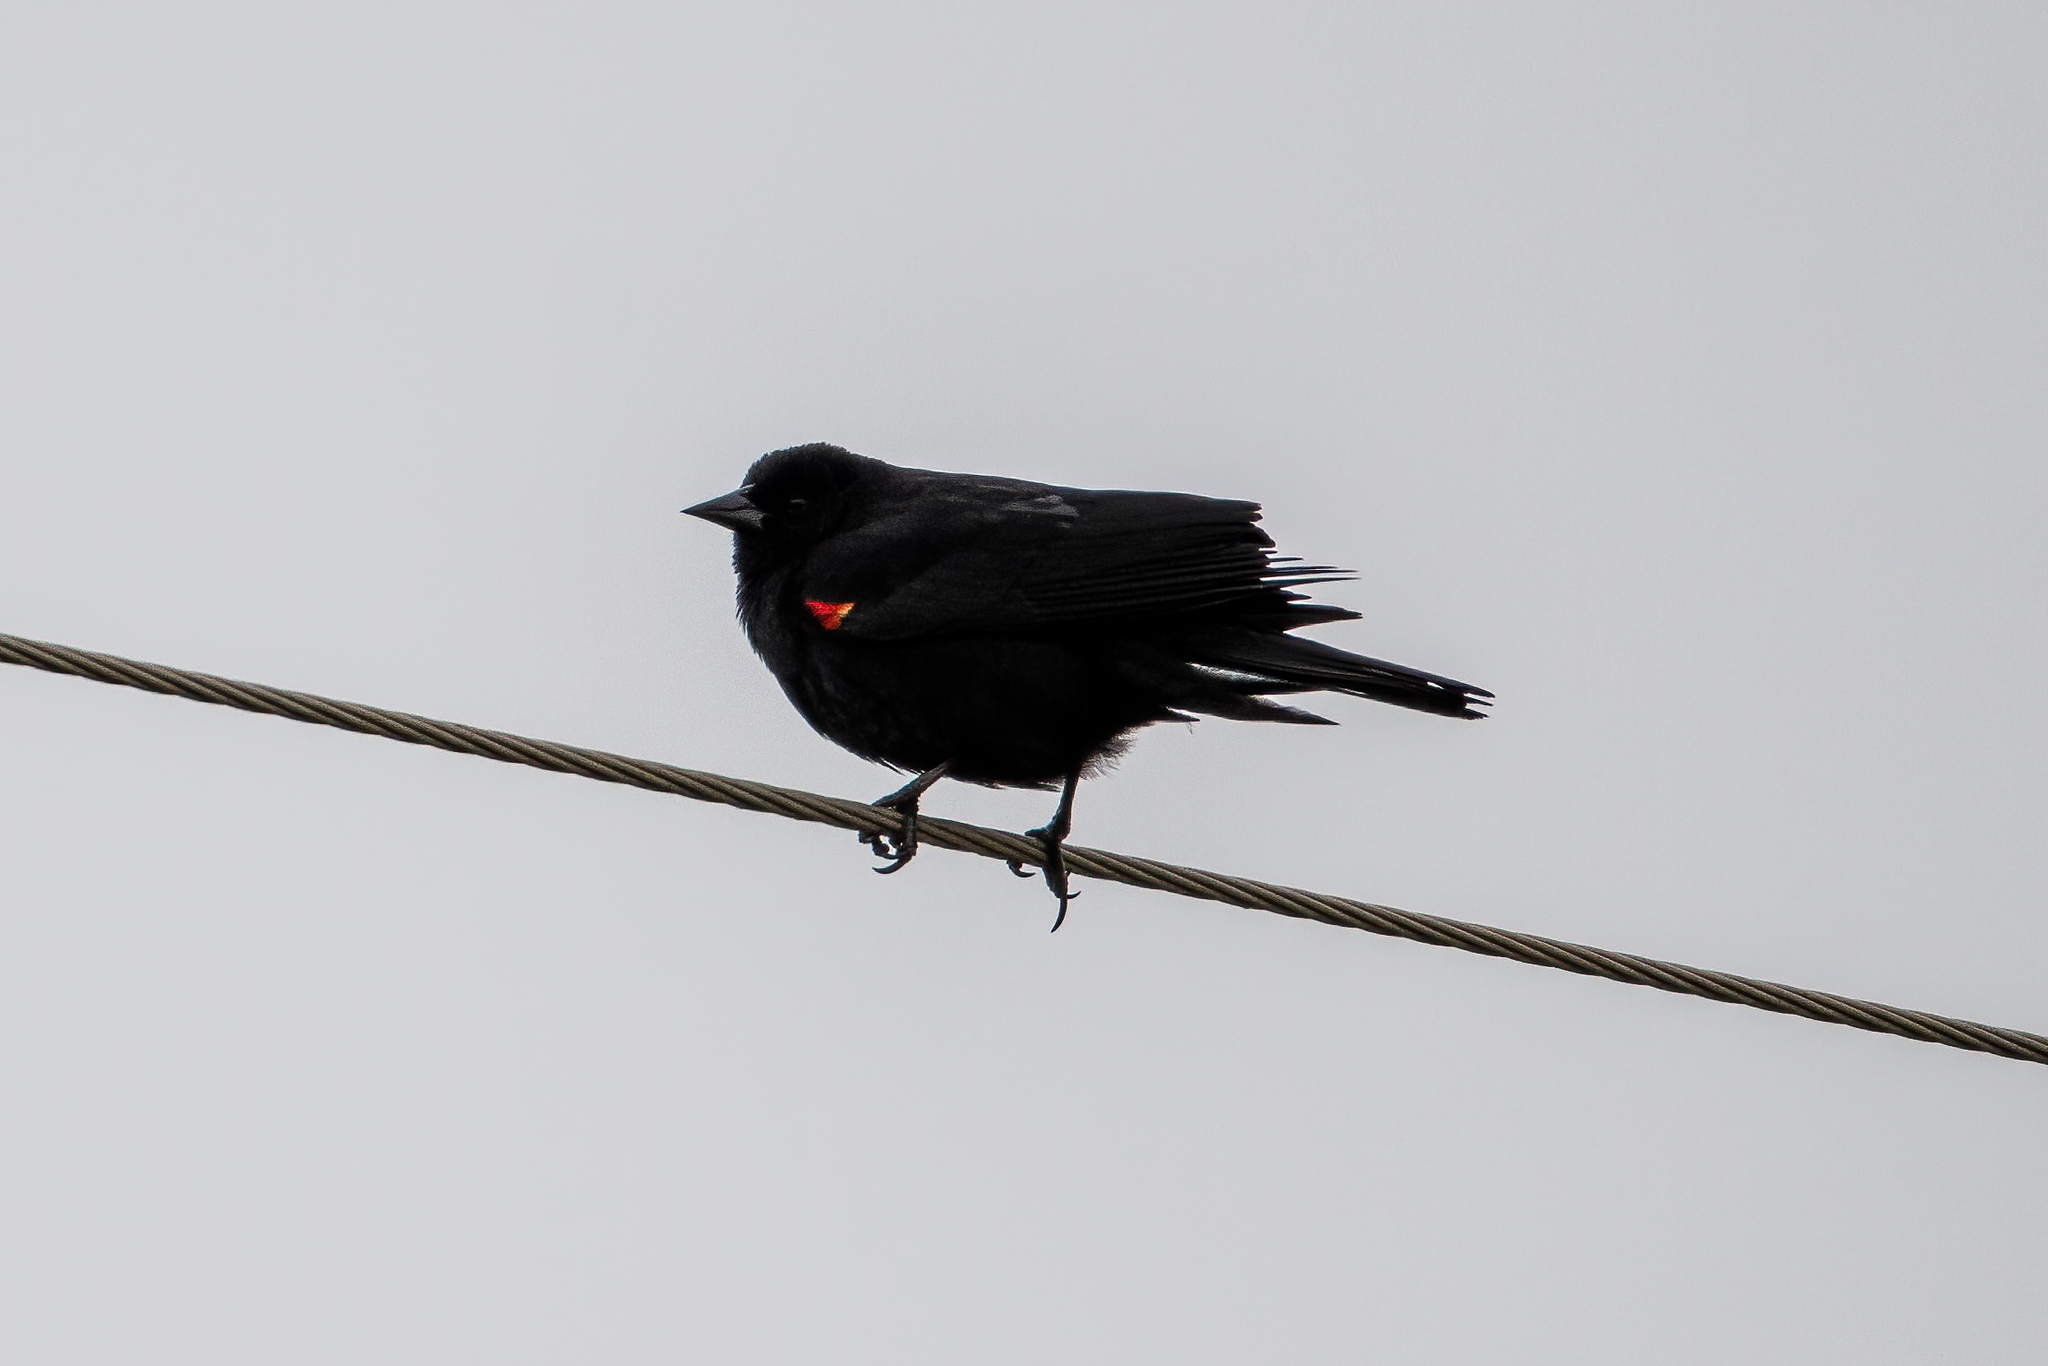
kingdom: Animalia
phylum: Chordata
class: Aves
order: Passeriformes
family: Icteridae
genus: Agelaius
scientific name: Agelaius phoeniceus
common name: Red-winged blackbird
